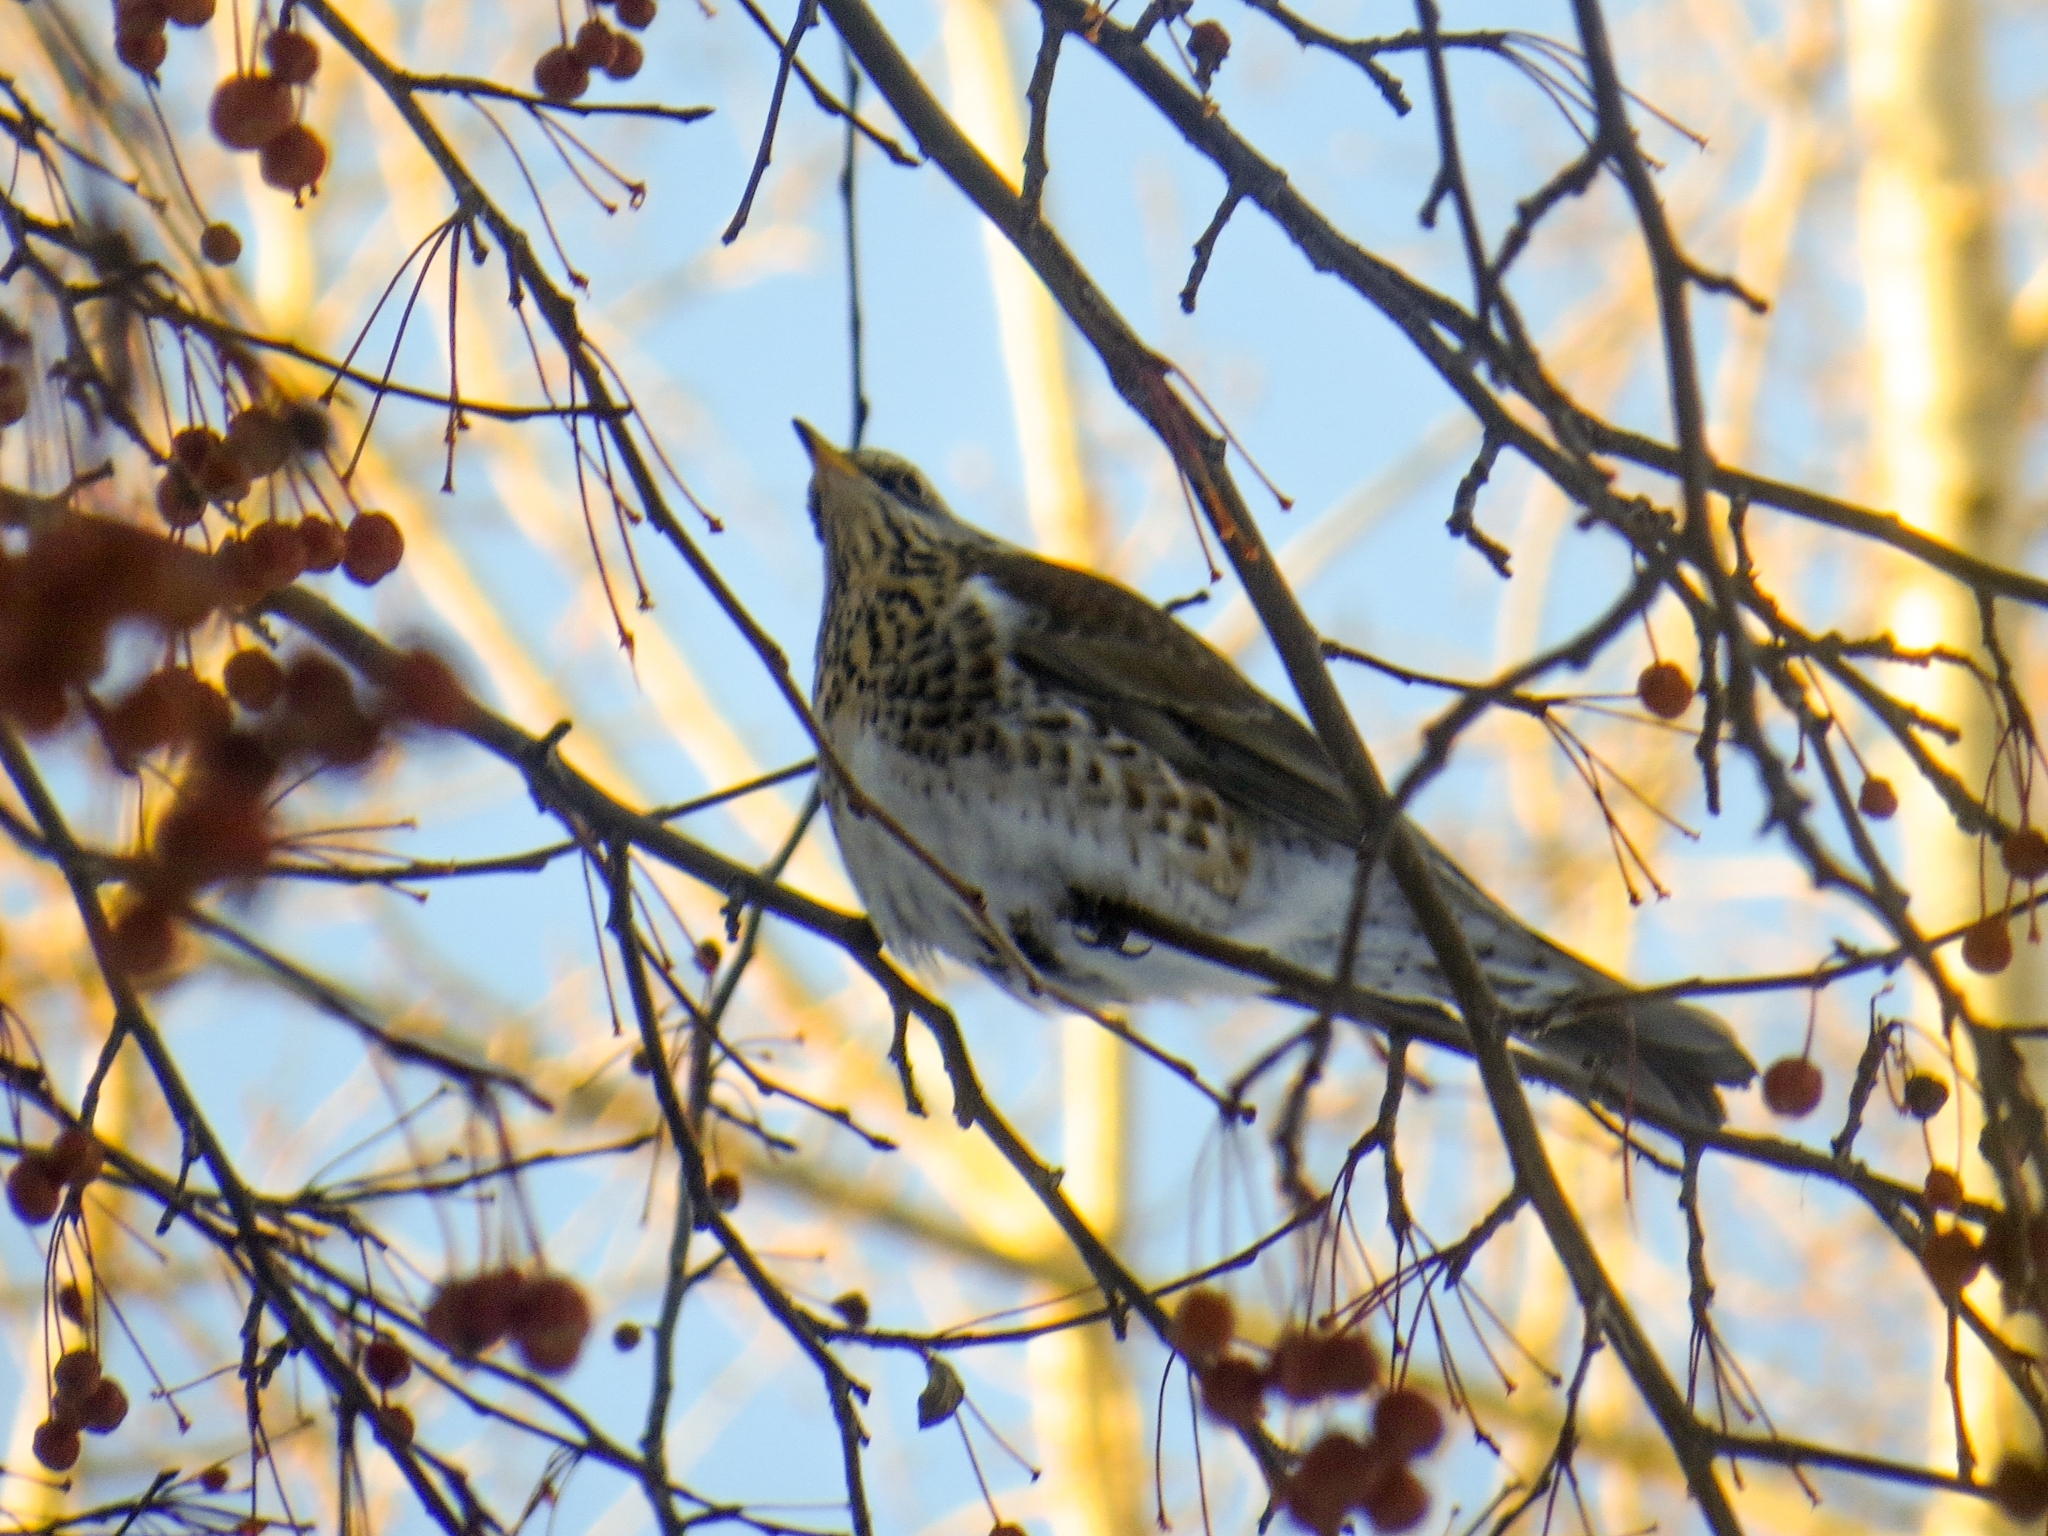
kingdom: Animalia
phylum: Chordata
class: Aves
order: Passeriformes
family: Turdidae
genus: Turdus
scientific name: Turdus pilaris
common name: Fieldfare
